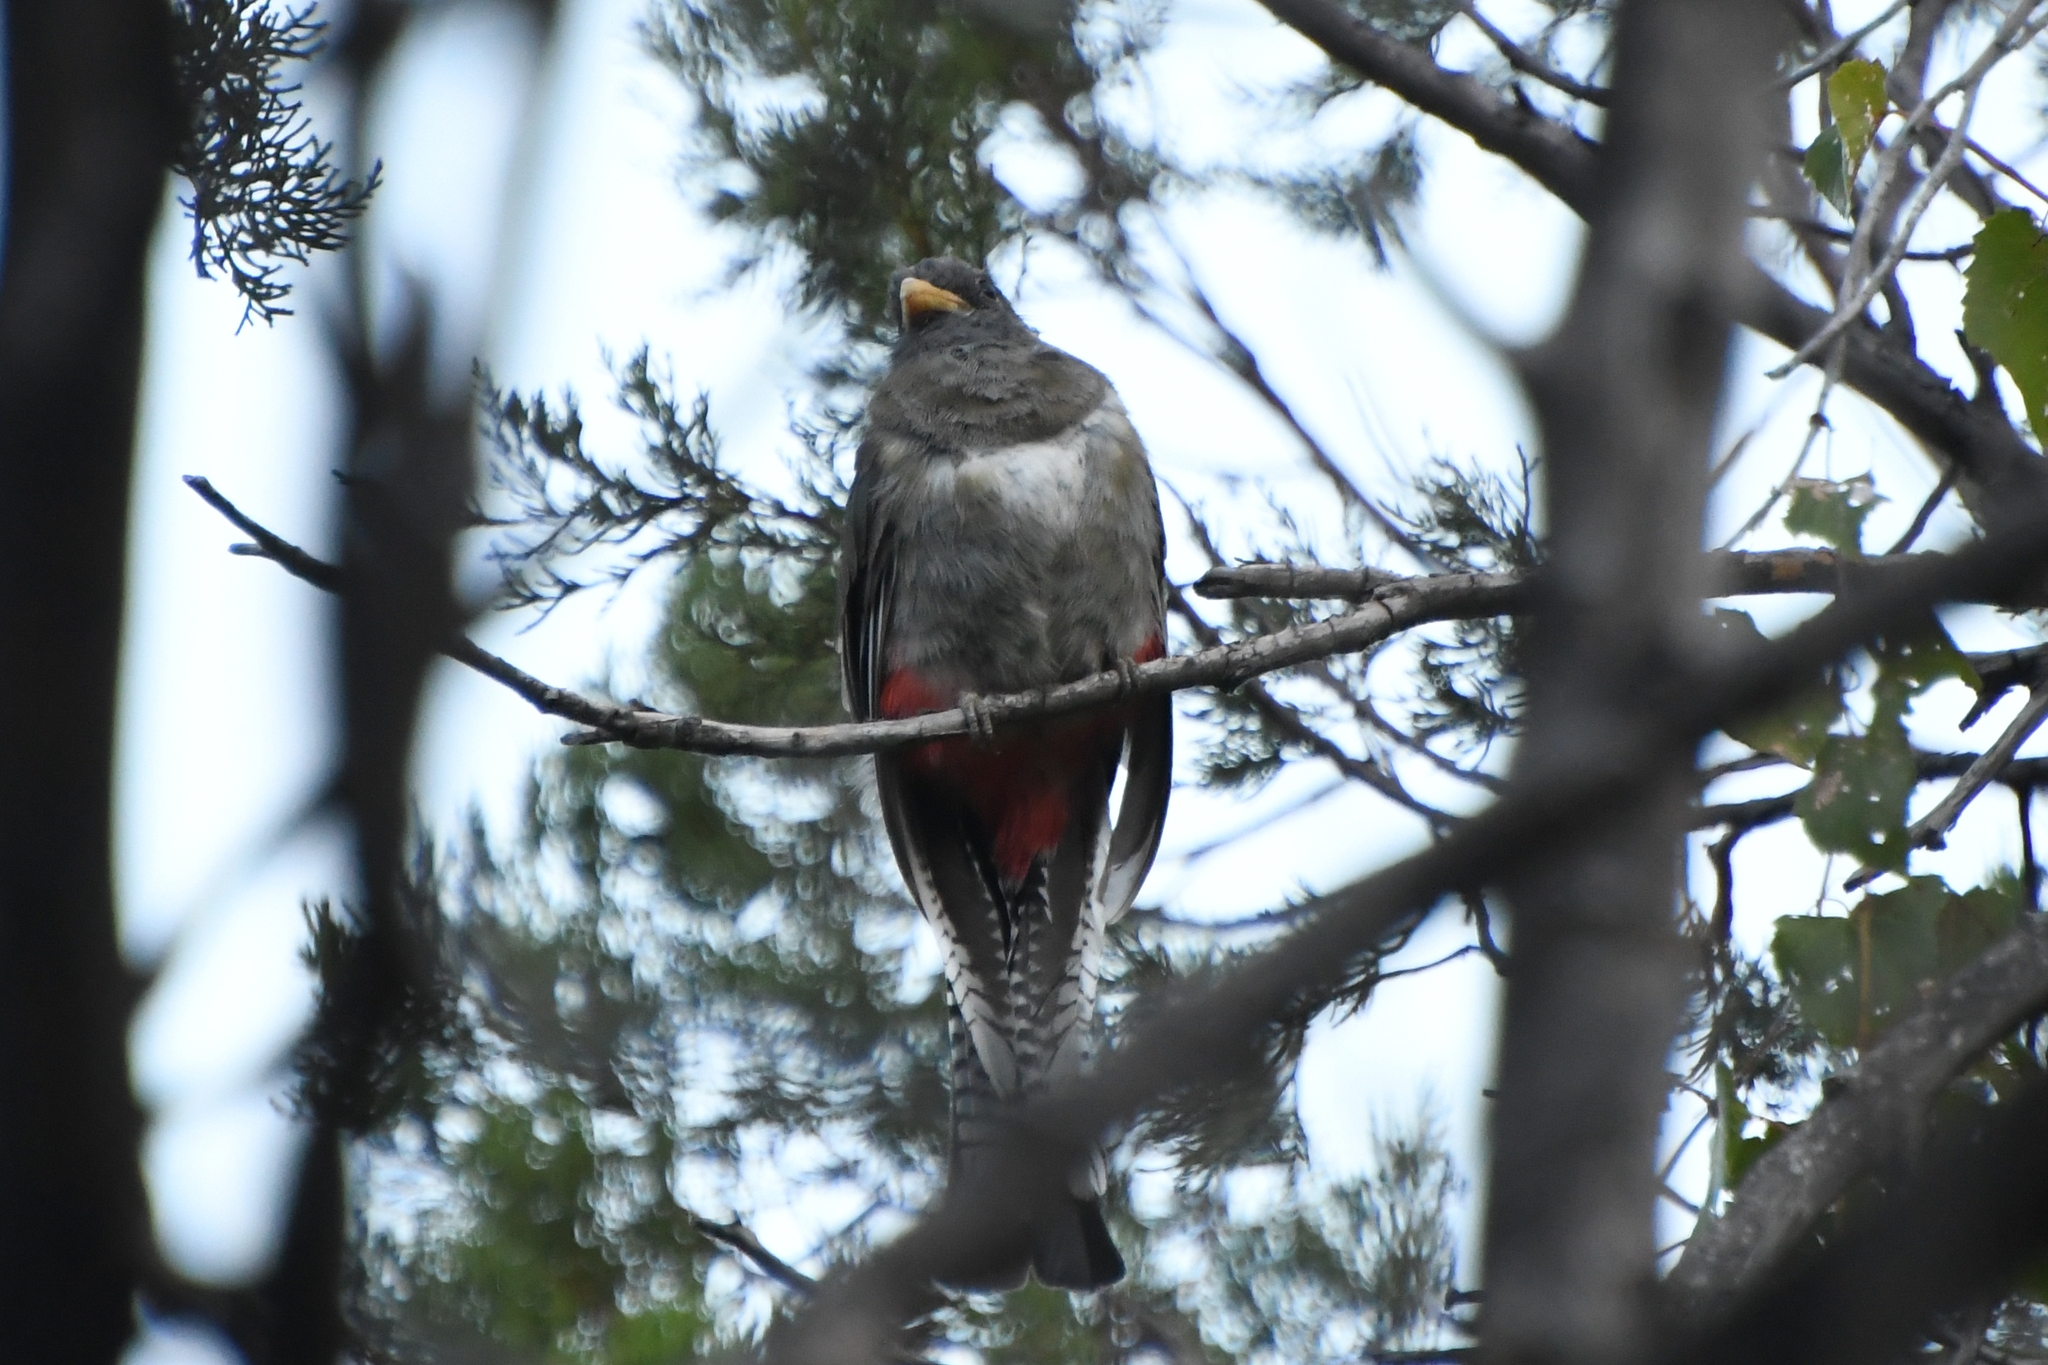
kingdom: Animalia
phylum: Chordata
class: Aves
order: Trogoniformes
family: Trogonidae
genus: Trogon
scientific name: Trogon elegans
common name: Elegant trogon
